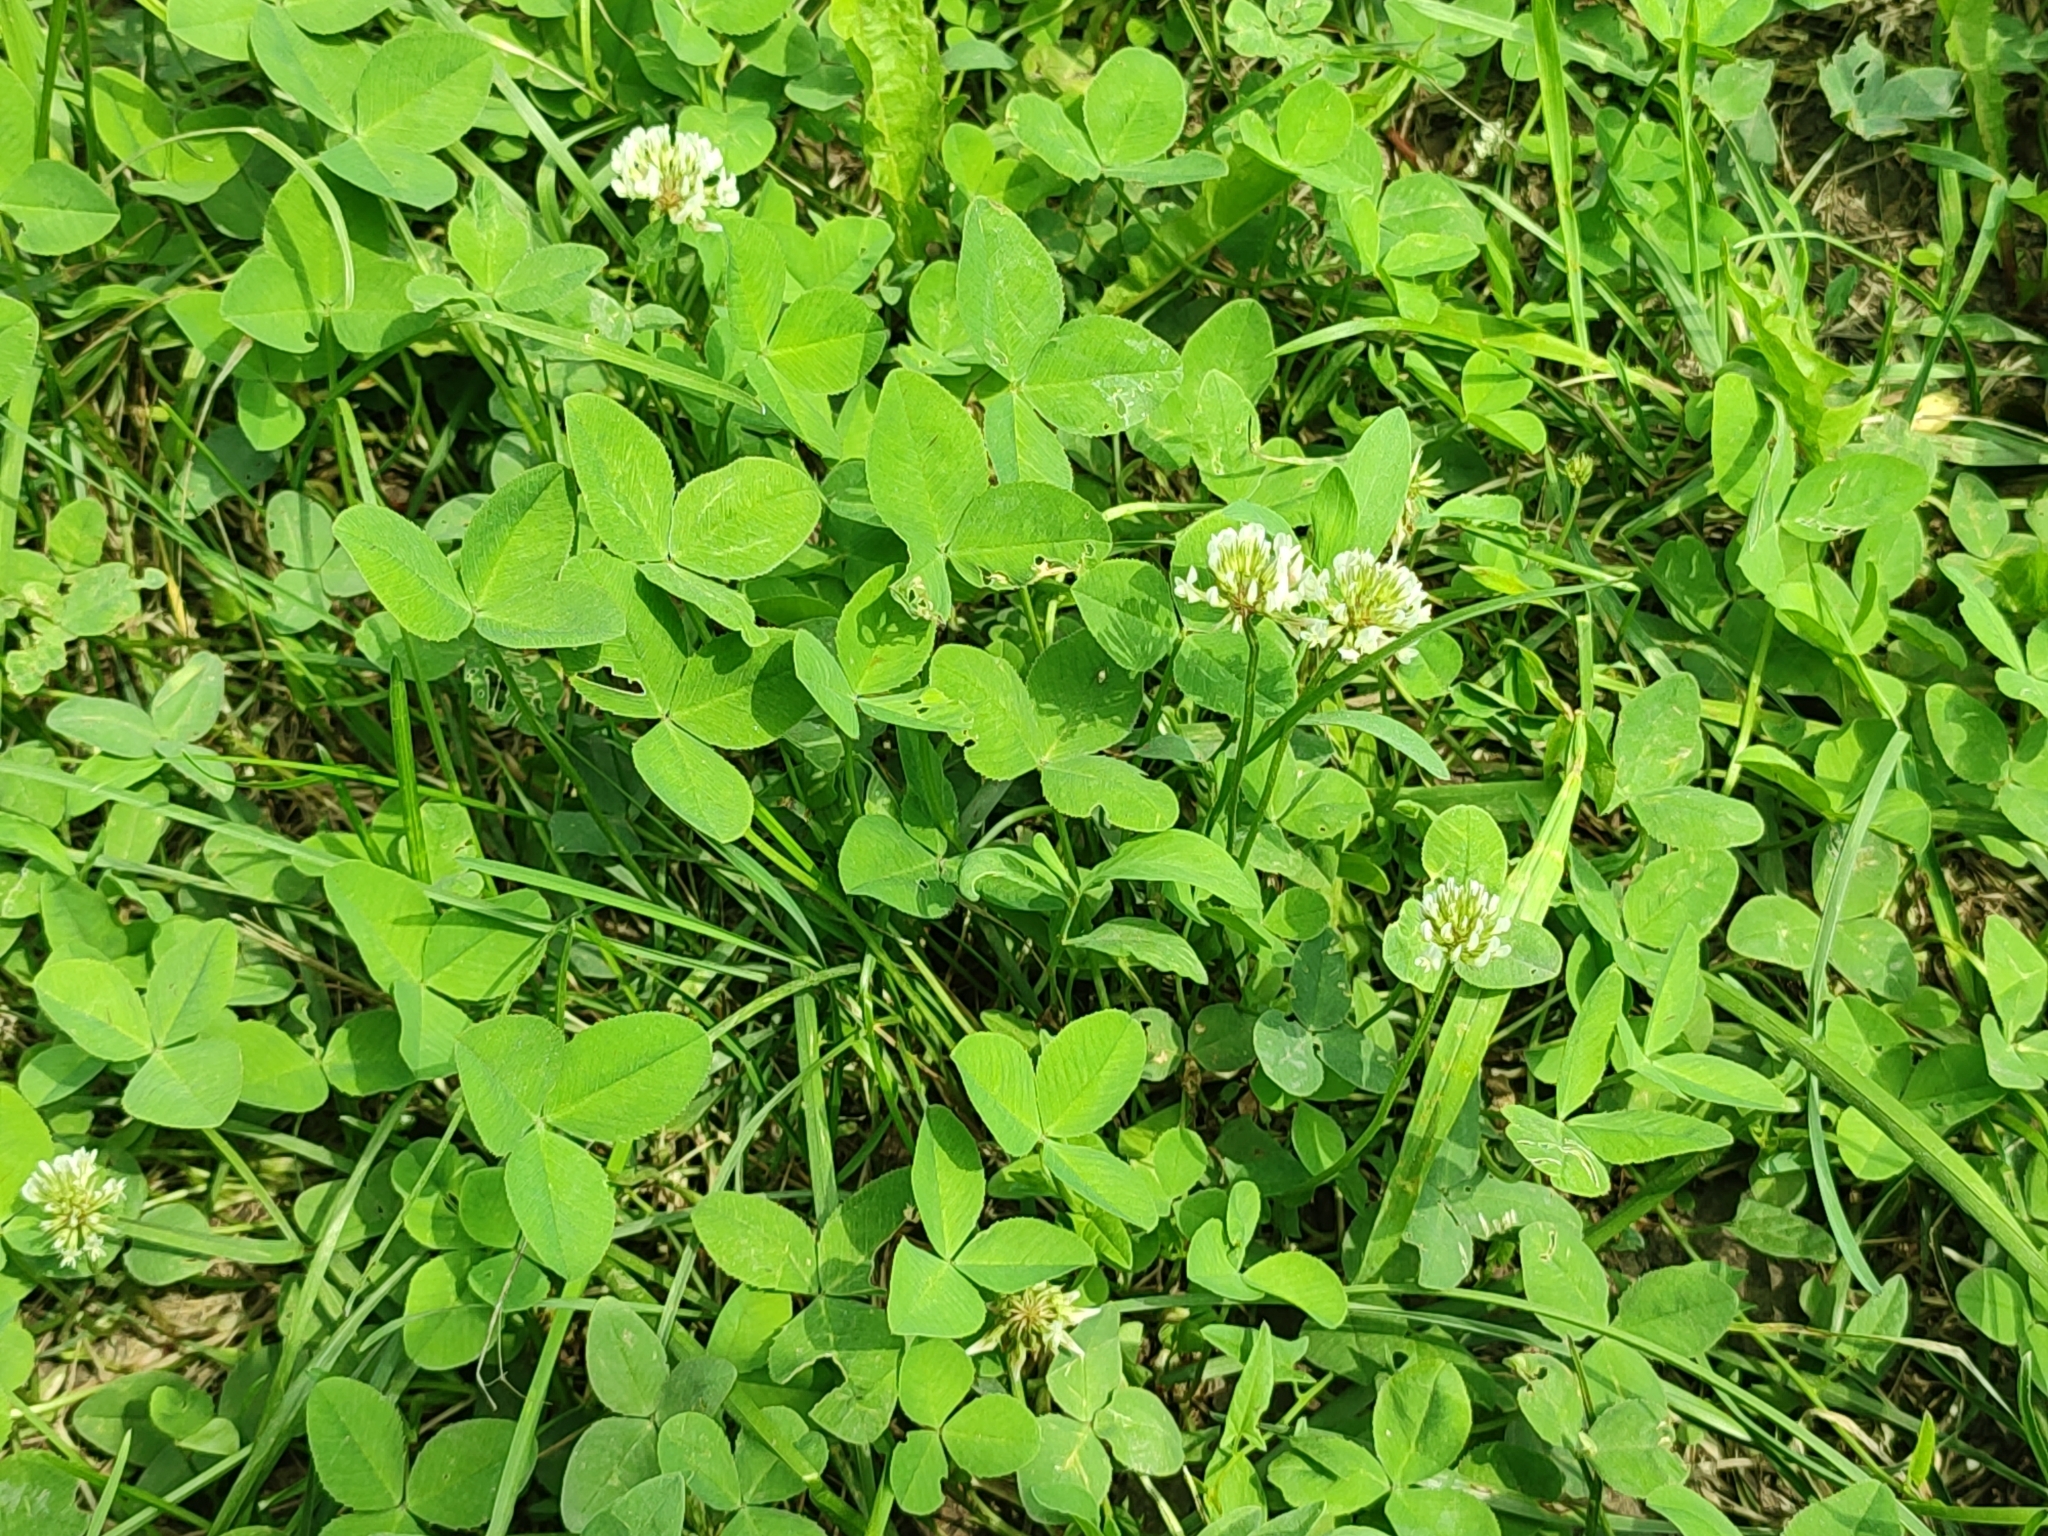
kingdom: Plantae
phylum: Tracheophyta
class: Magnoliopsida
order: Fabales
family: Fabaceae
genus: Trifolium
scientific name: Trifolium repens
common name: White clover
